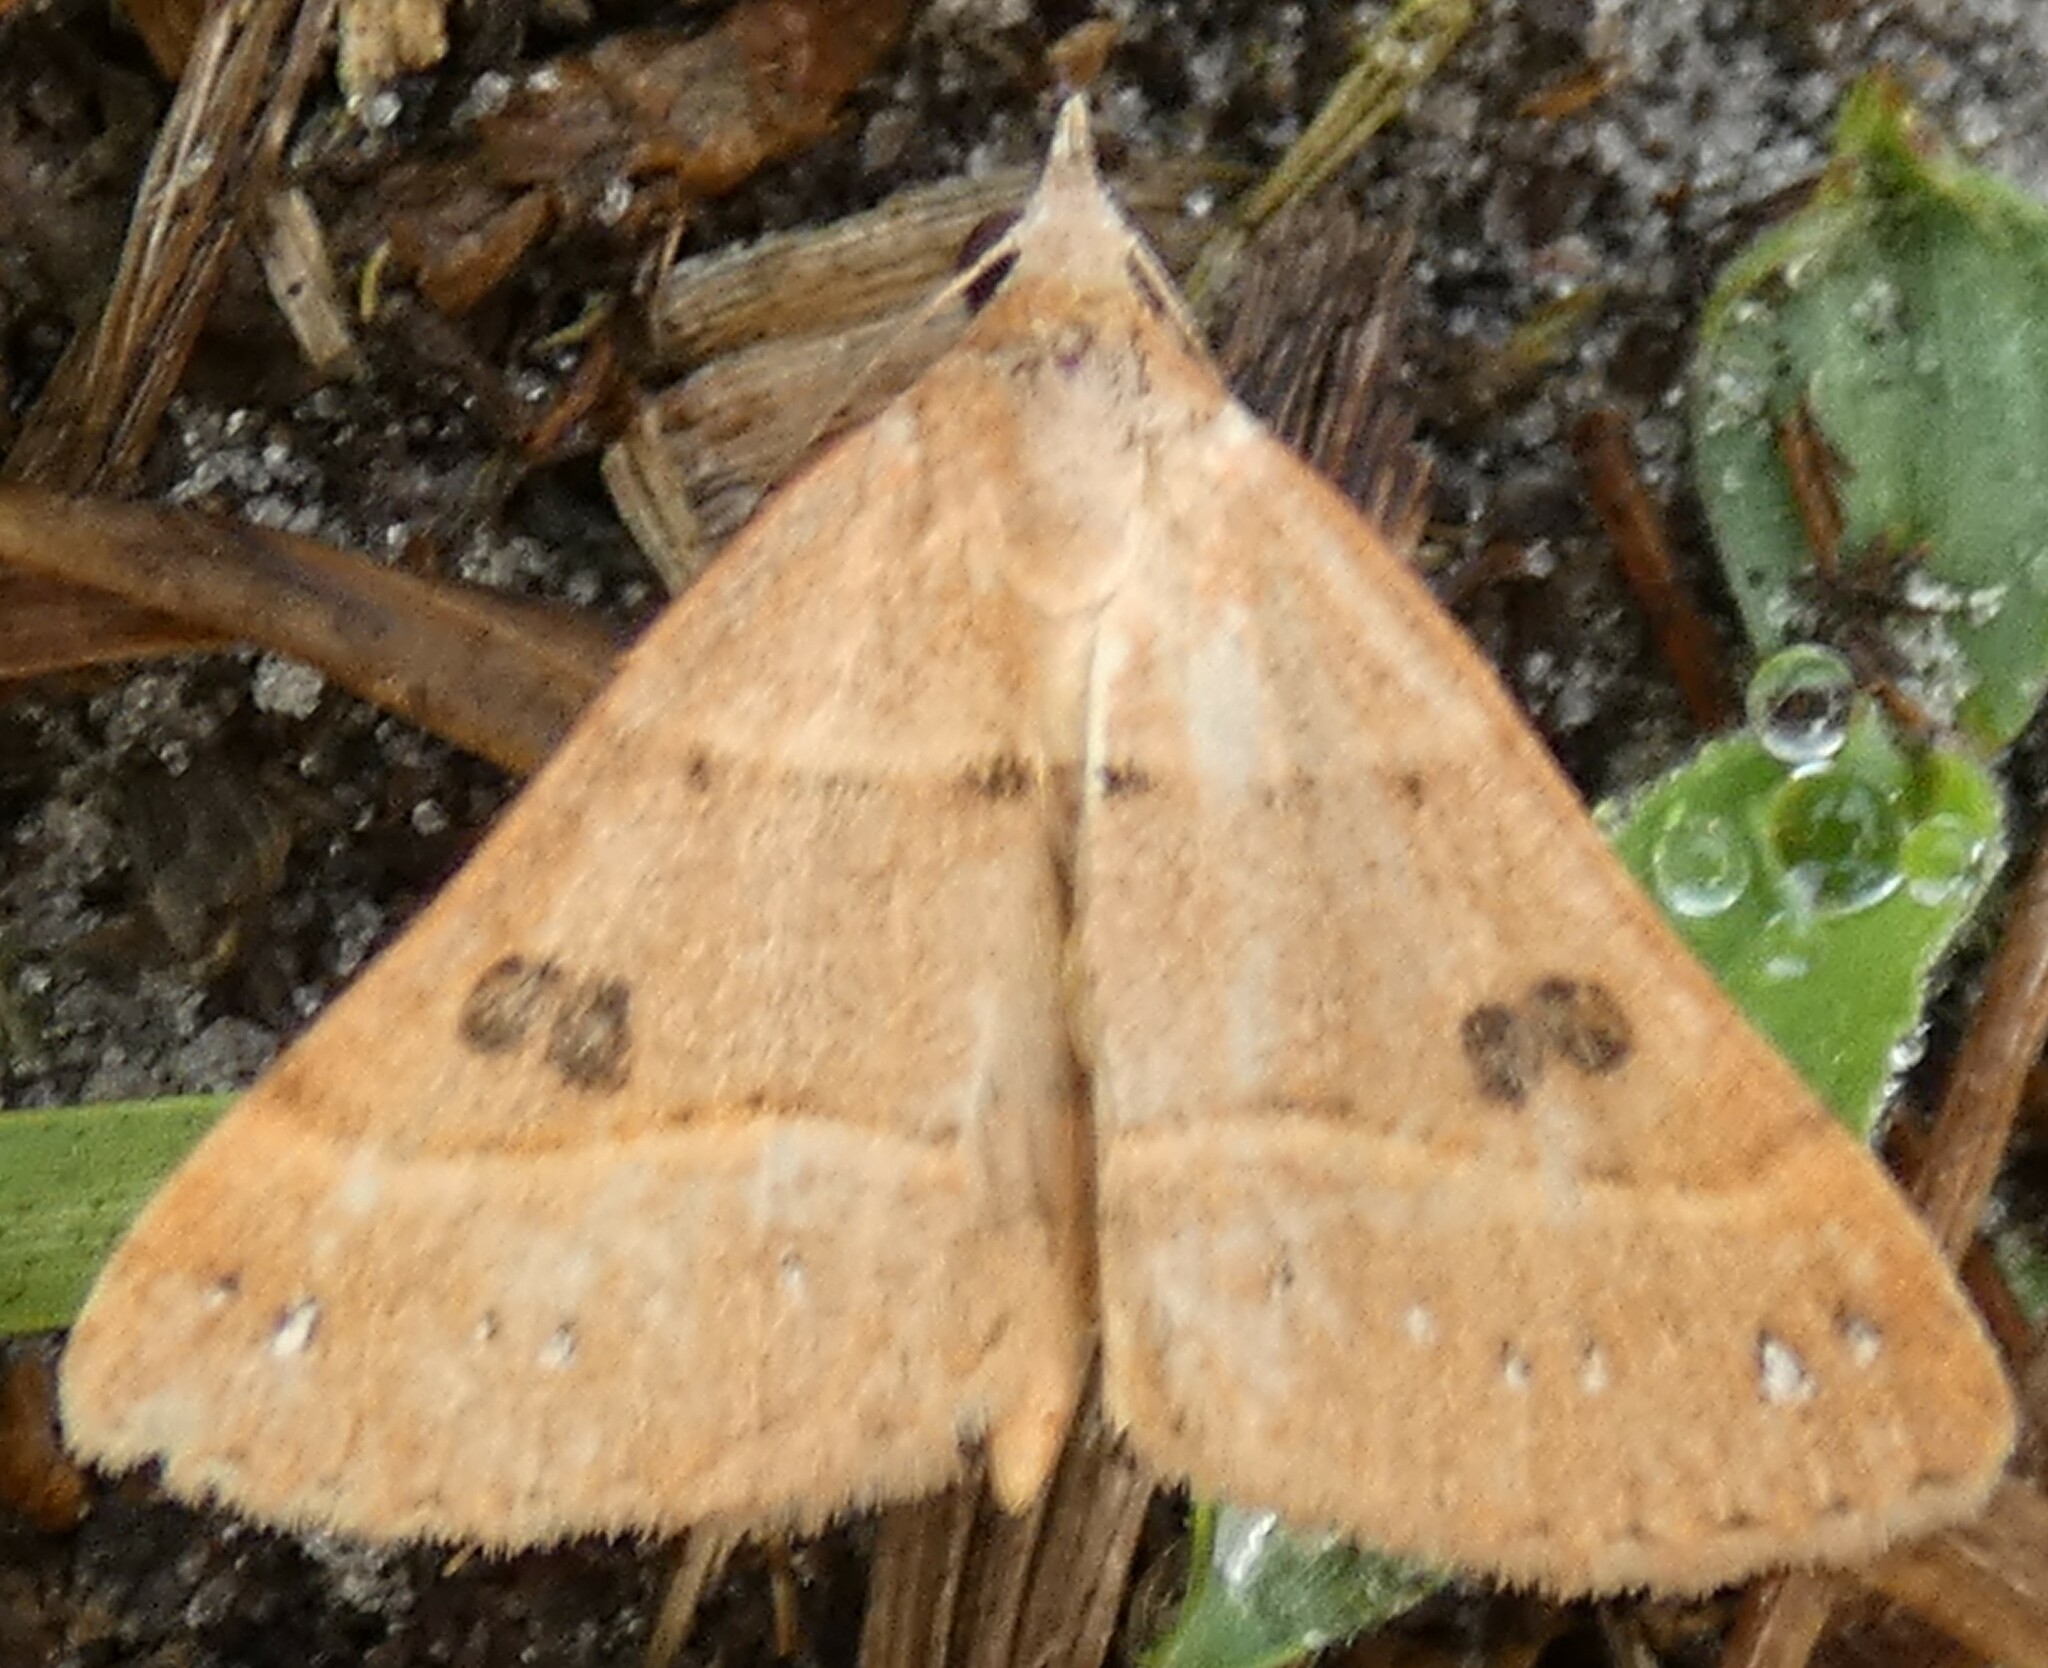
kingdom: Animalia
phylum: Arthropoda
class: Insecta
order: Lepidoptera
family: Erebidae
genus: Hemeroplanis
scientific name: Hemeroplanis habitalis
